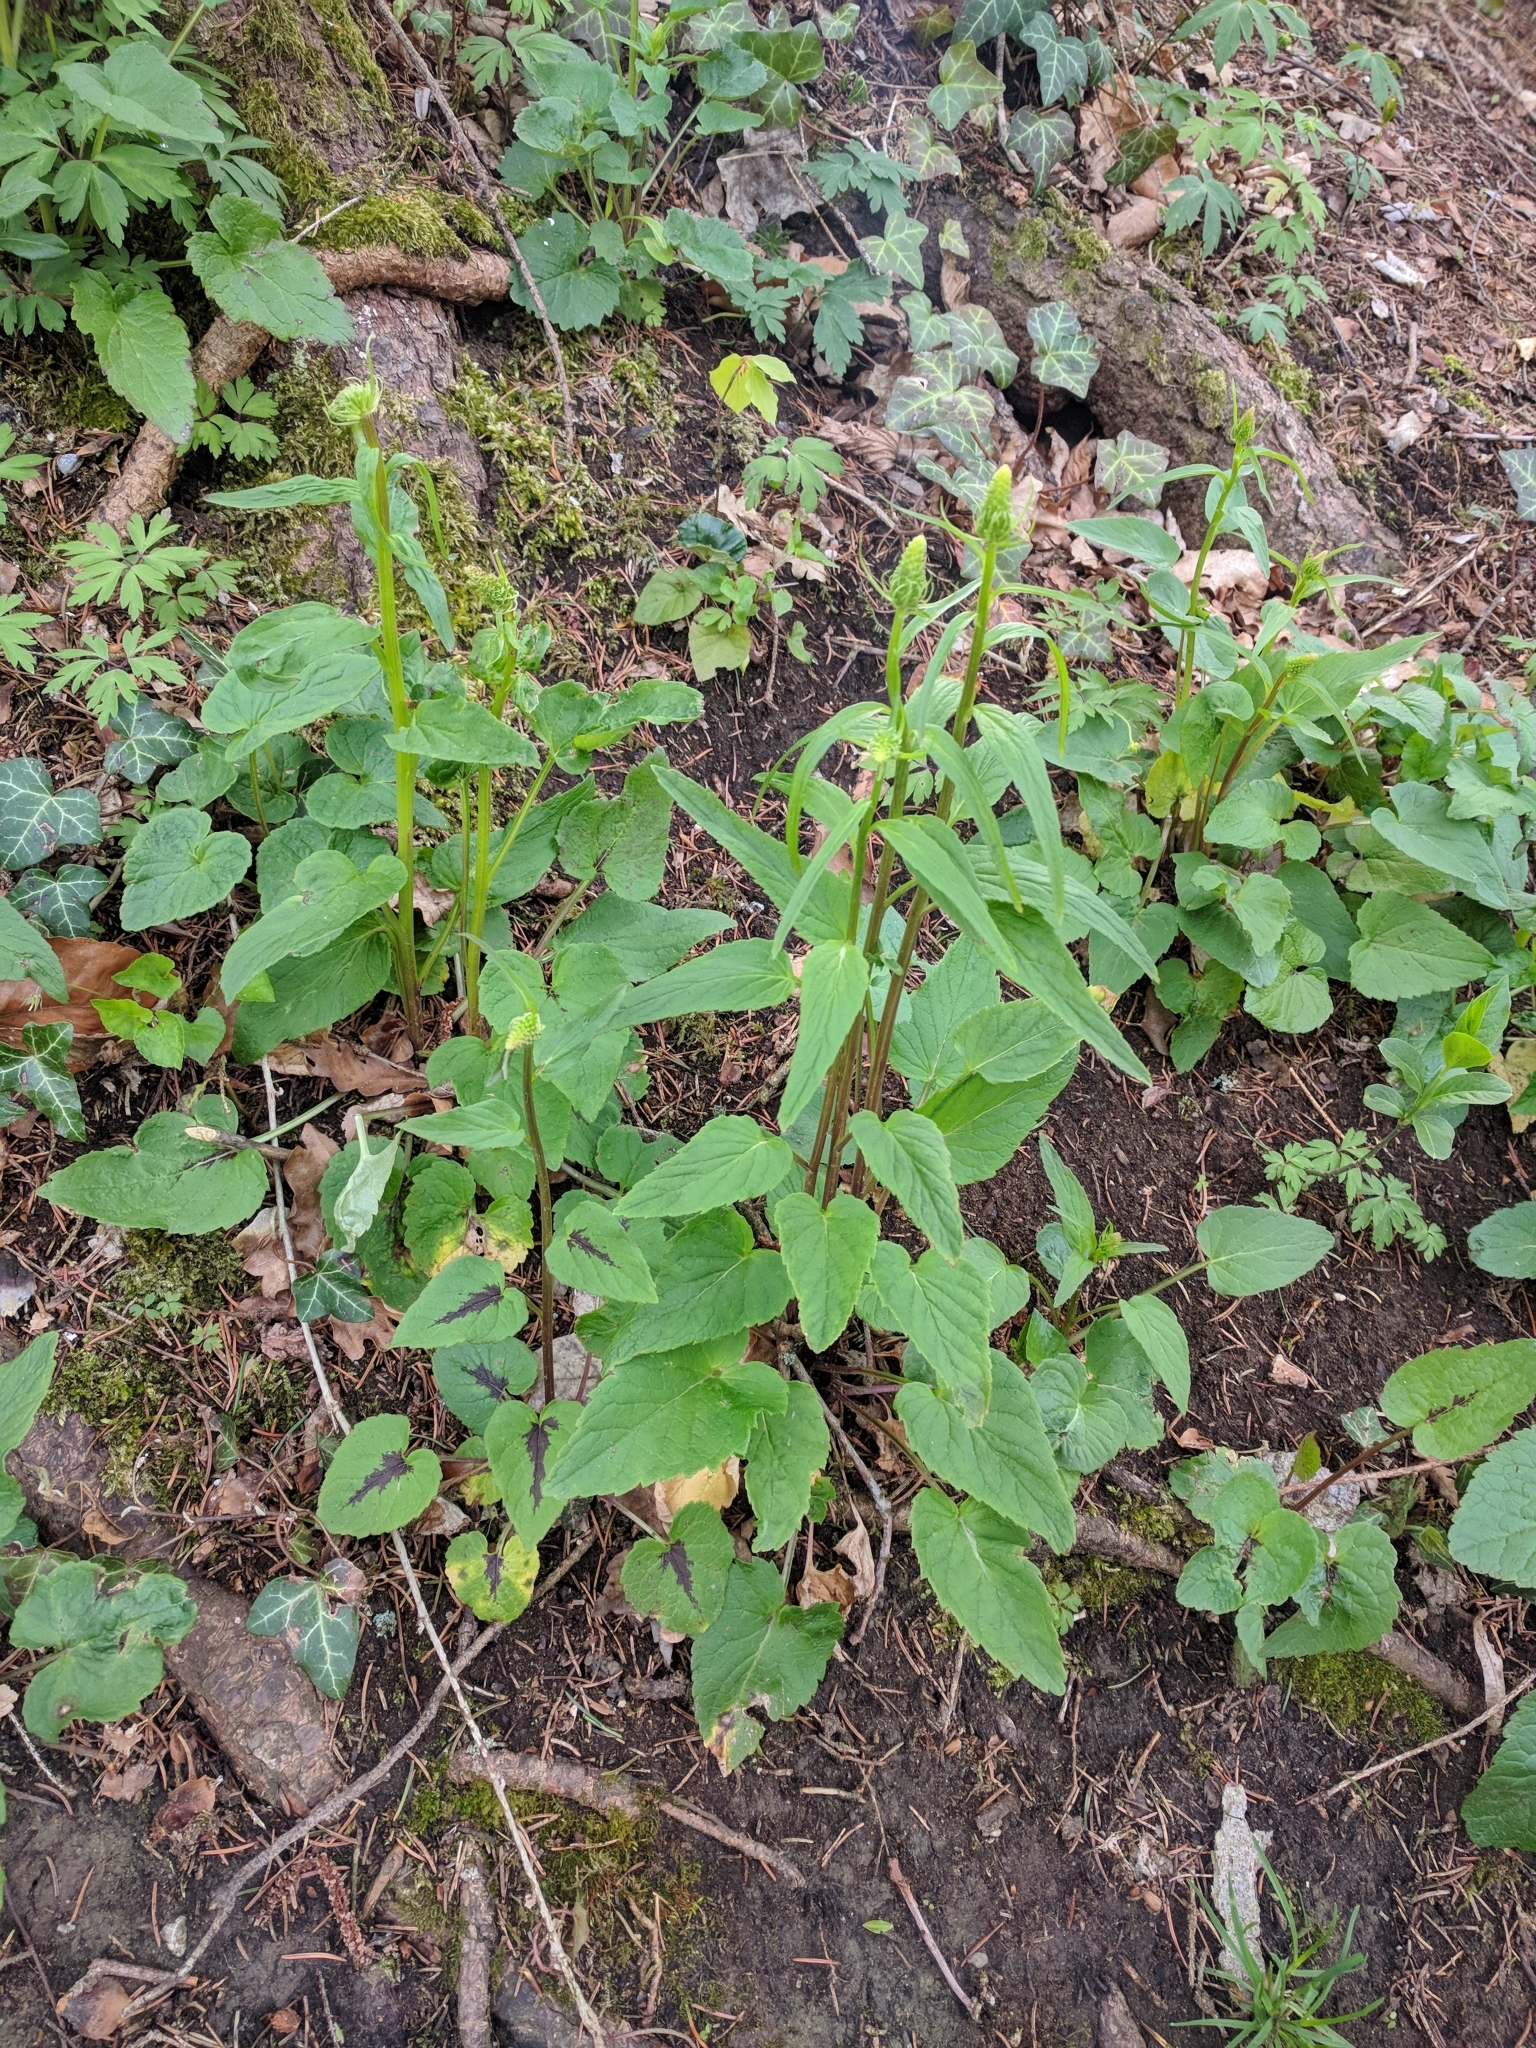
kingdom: Plantae
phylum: Tracheophyta
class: Magnoliopsida
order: Asterales
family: Campanulaceae
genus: Phyteuma
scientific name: Phyteuma spicatum
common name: Spiked rampion
